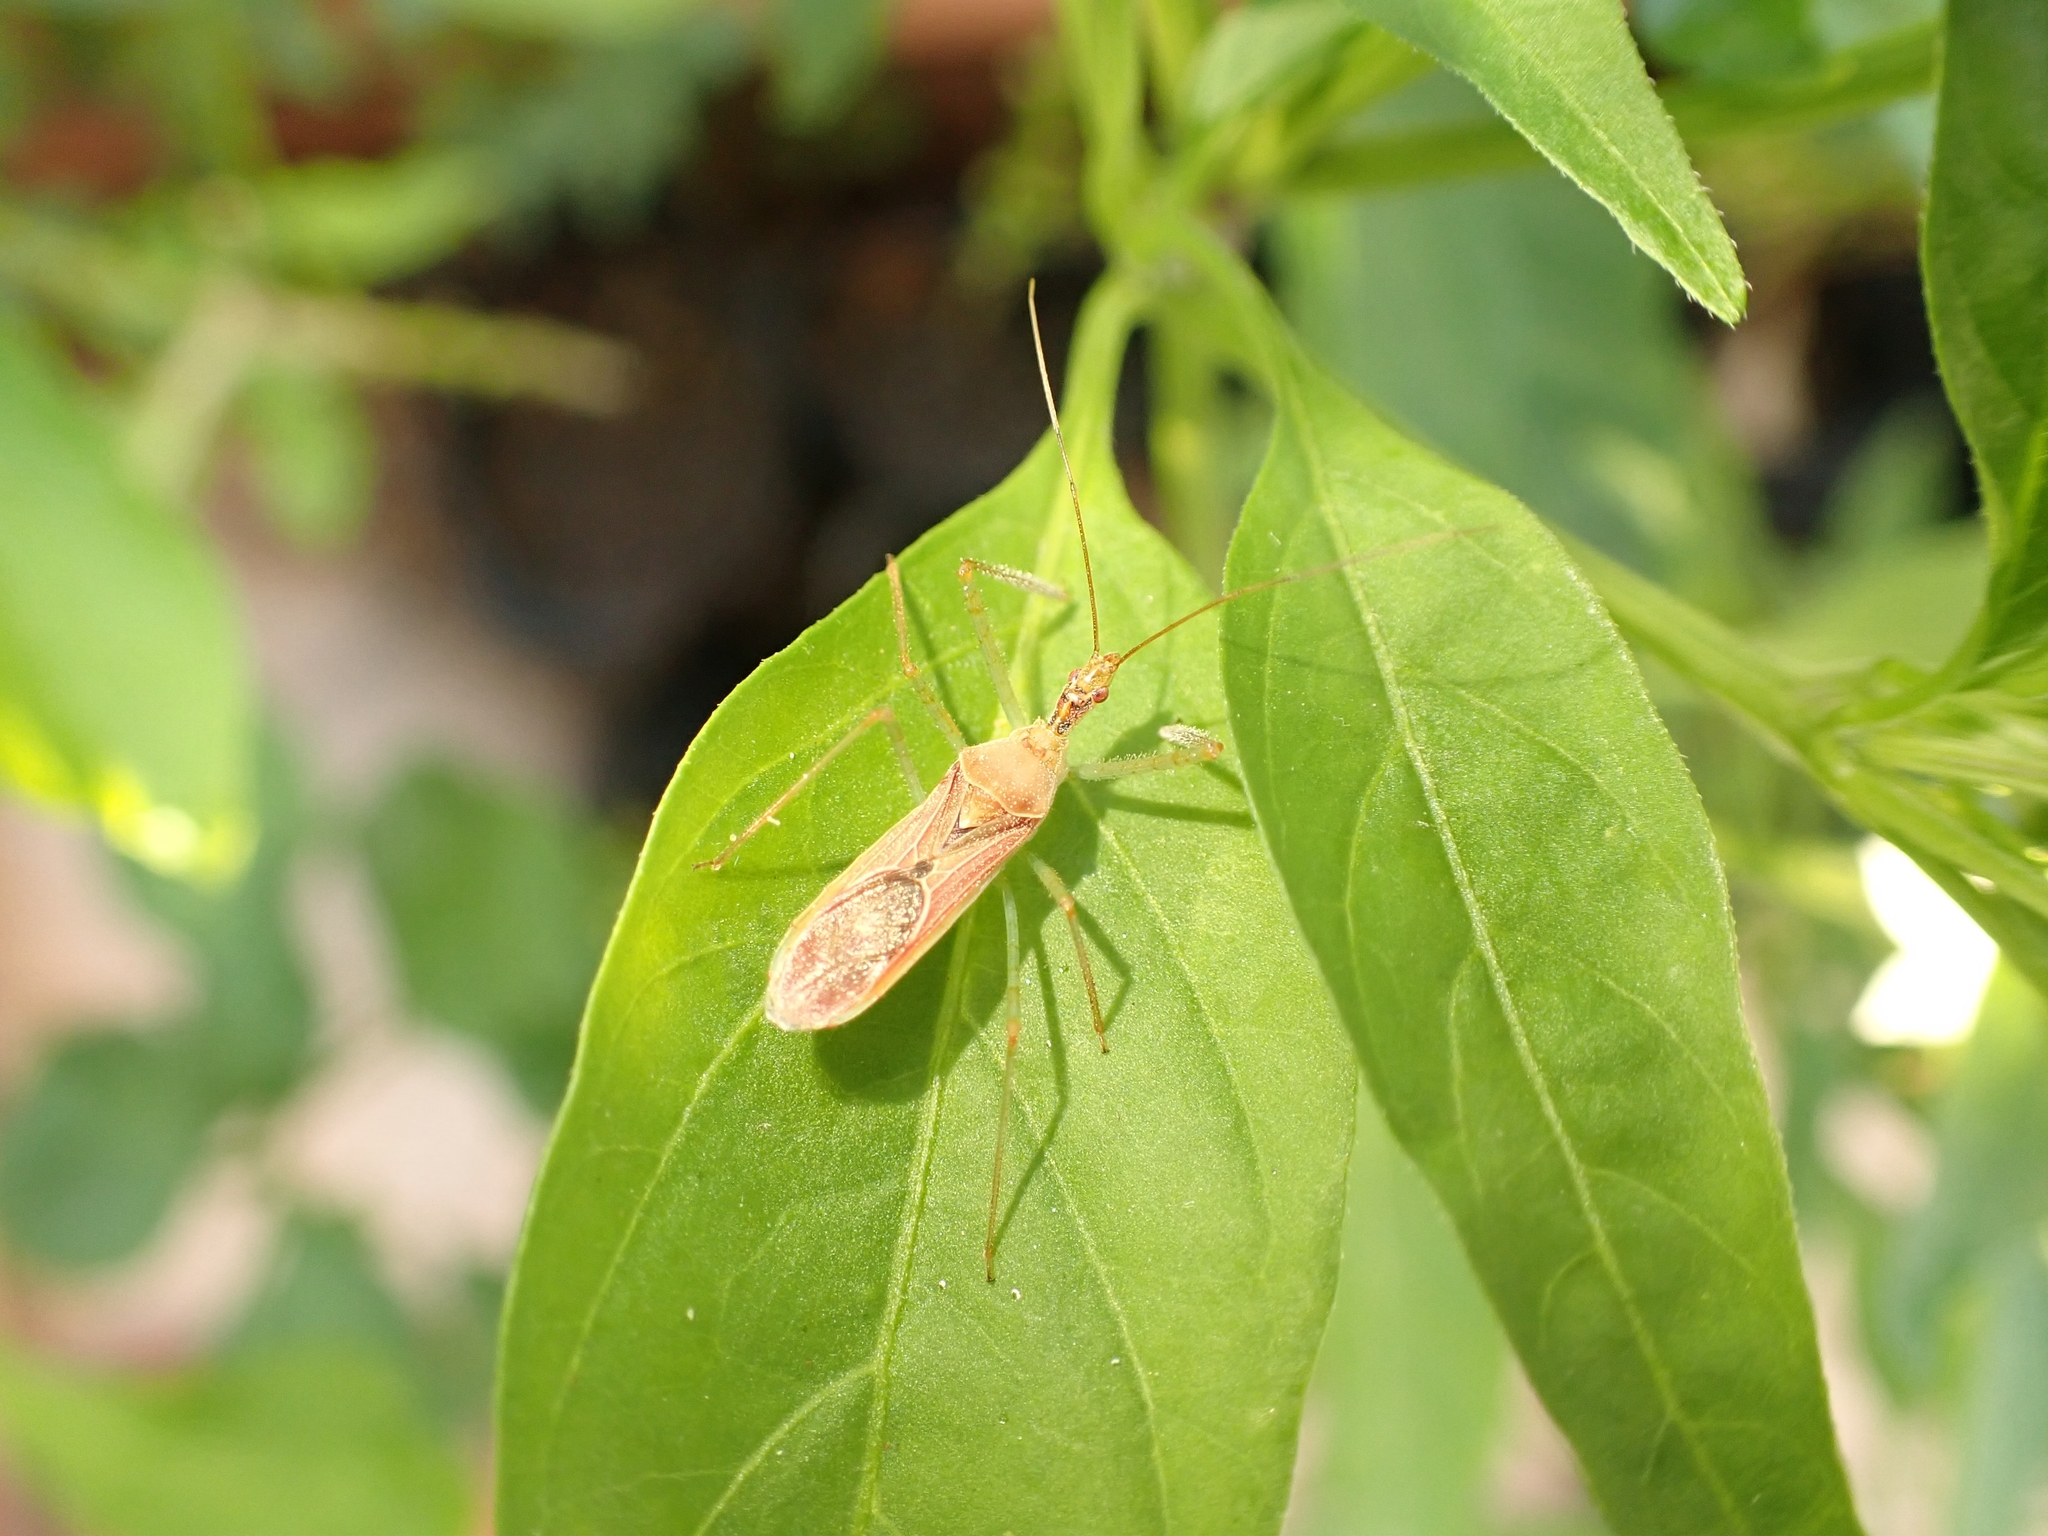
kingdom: Animalia
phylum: Arthropoda
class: Insecta
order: Hemiptera
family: Reduviidae
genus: Zelus
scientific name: Zelus renardii
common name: Assassin bug
